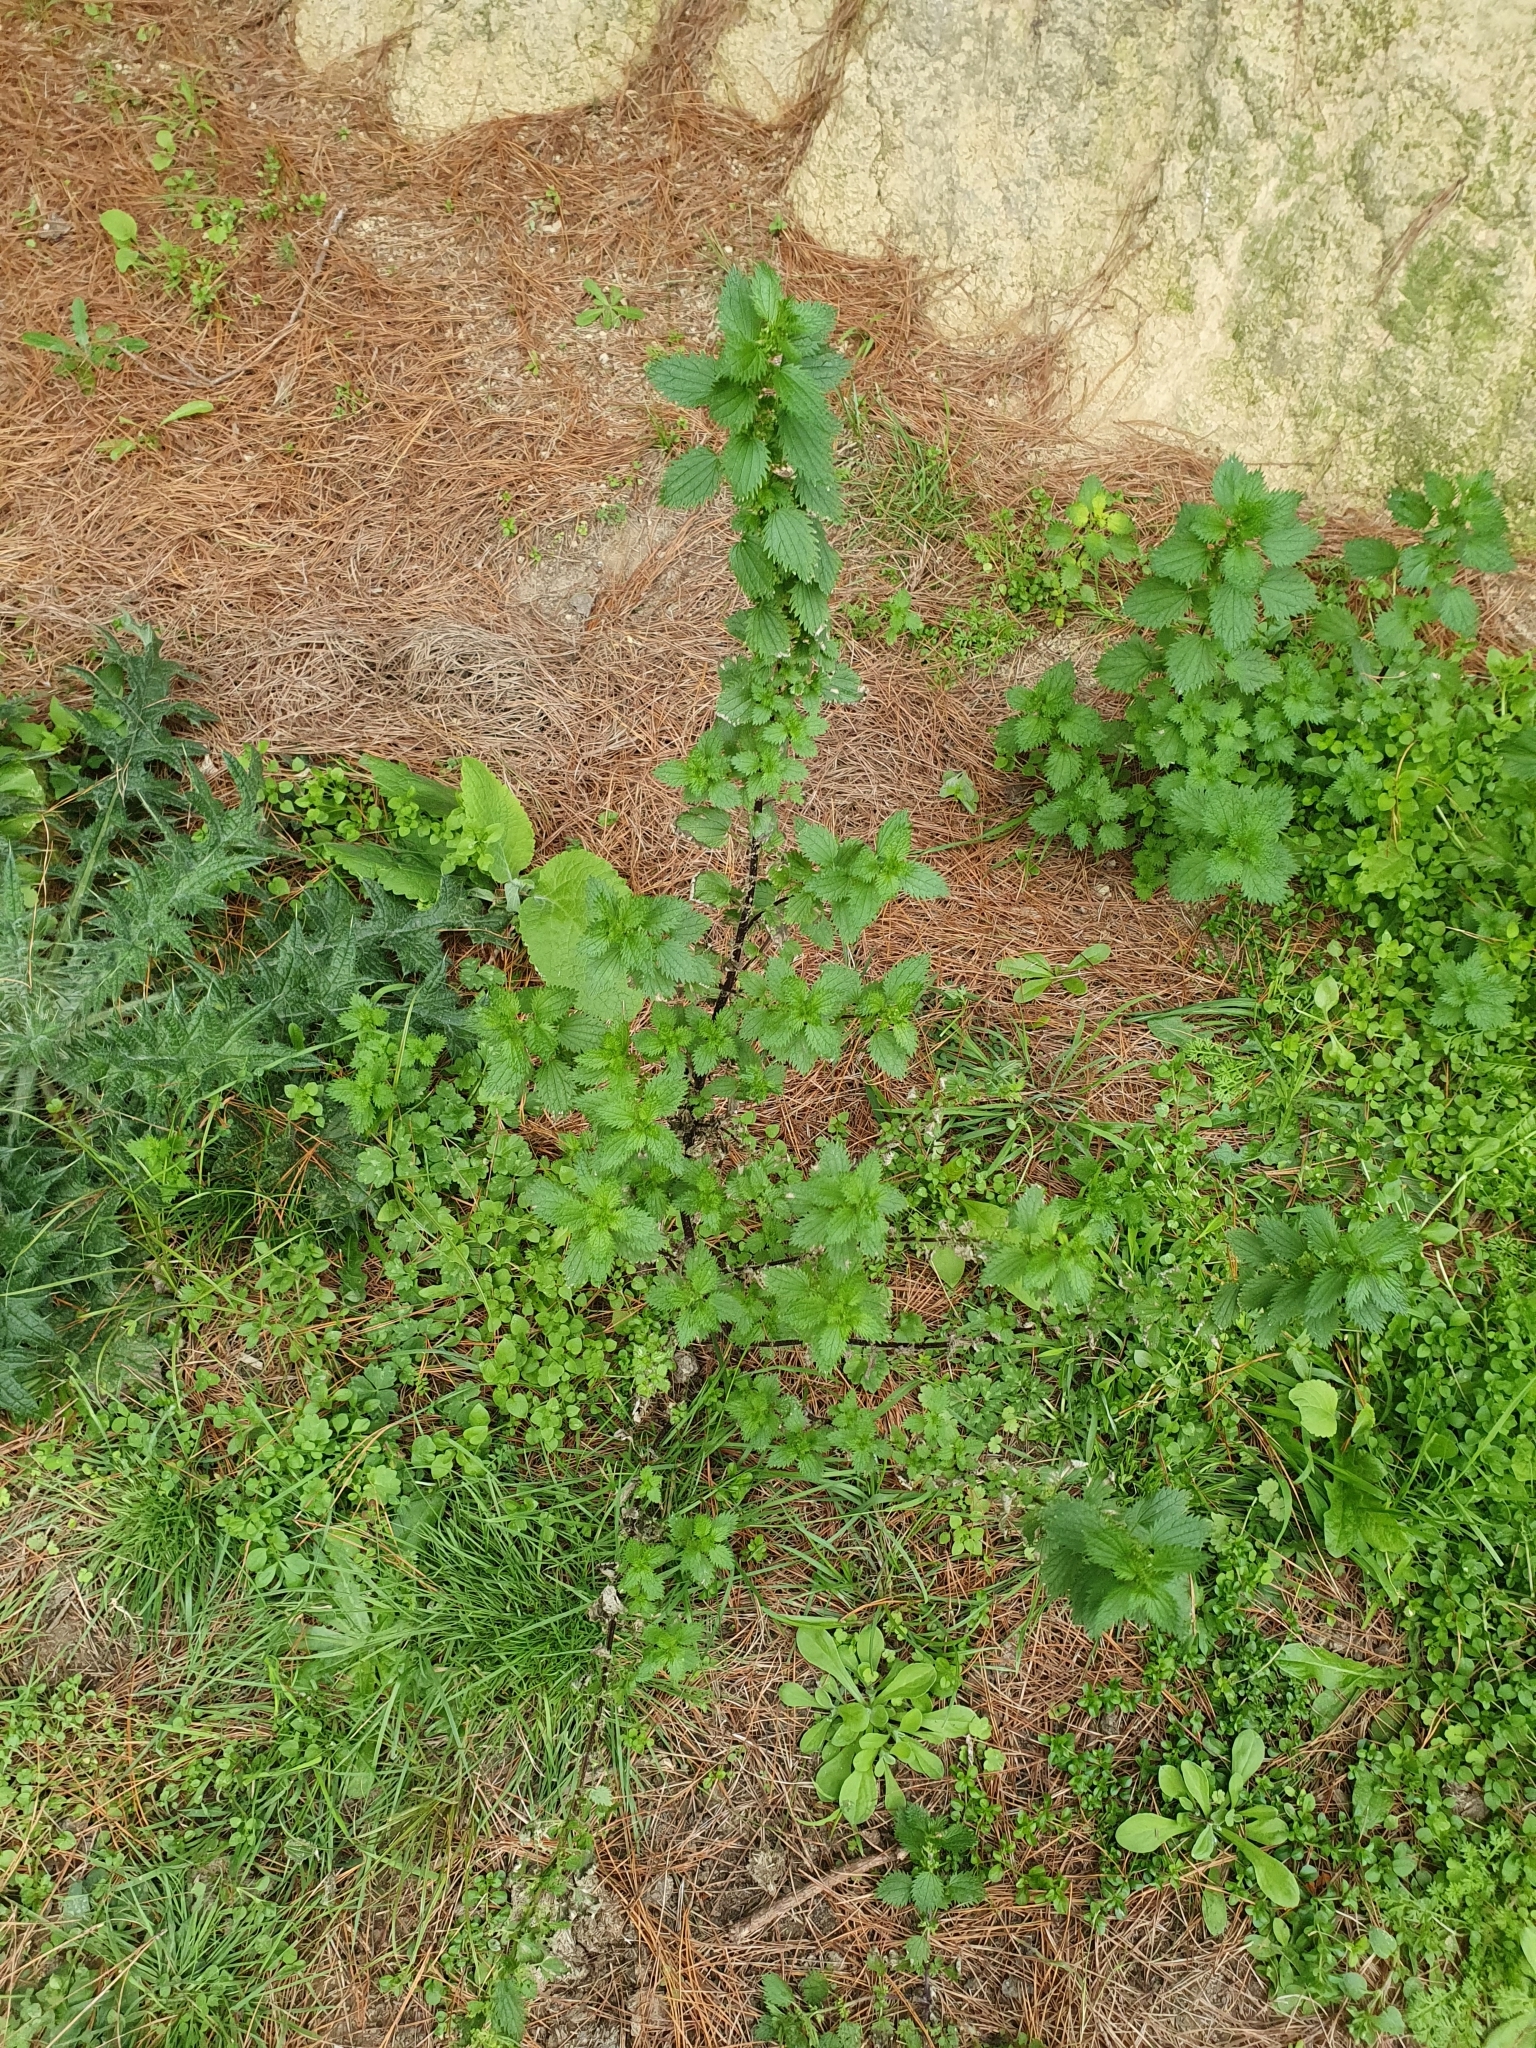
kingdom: Plantae
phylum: Tracheophyta
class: Magnoliopsida
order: Rosales
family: Urticaceae
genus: Urtica
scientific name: Urtica urens
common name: Dwarf nettle
